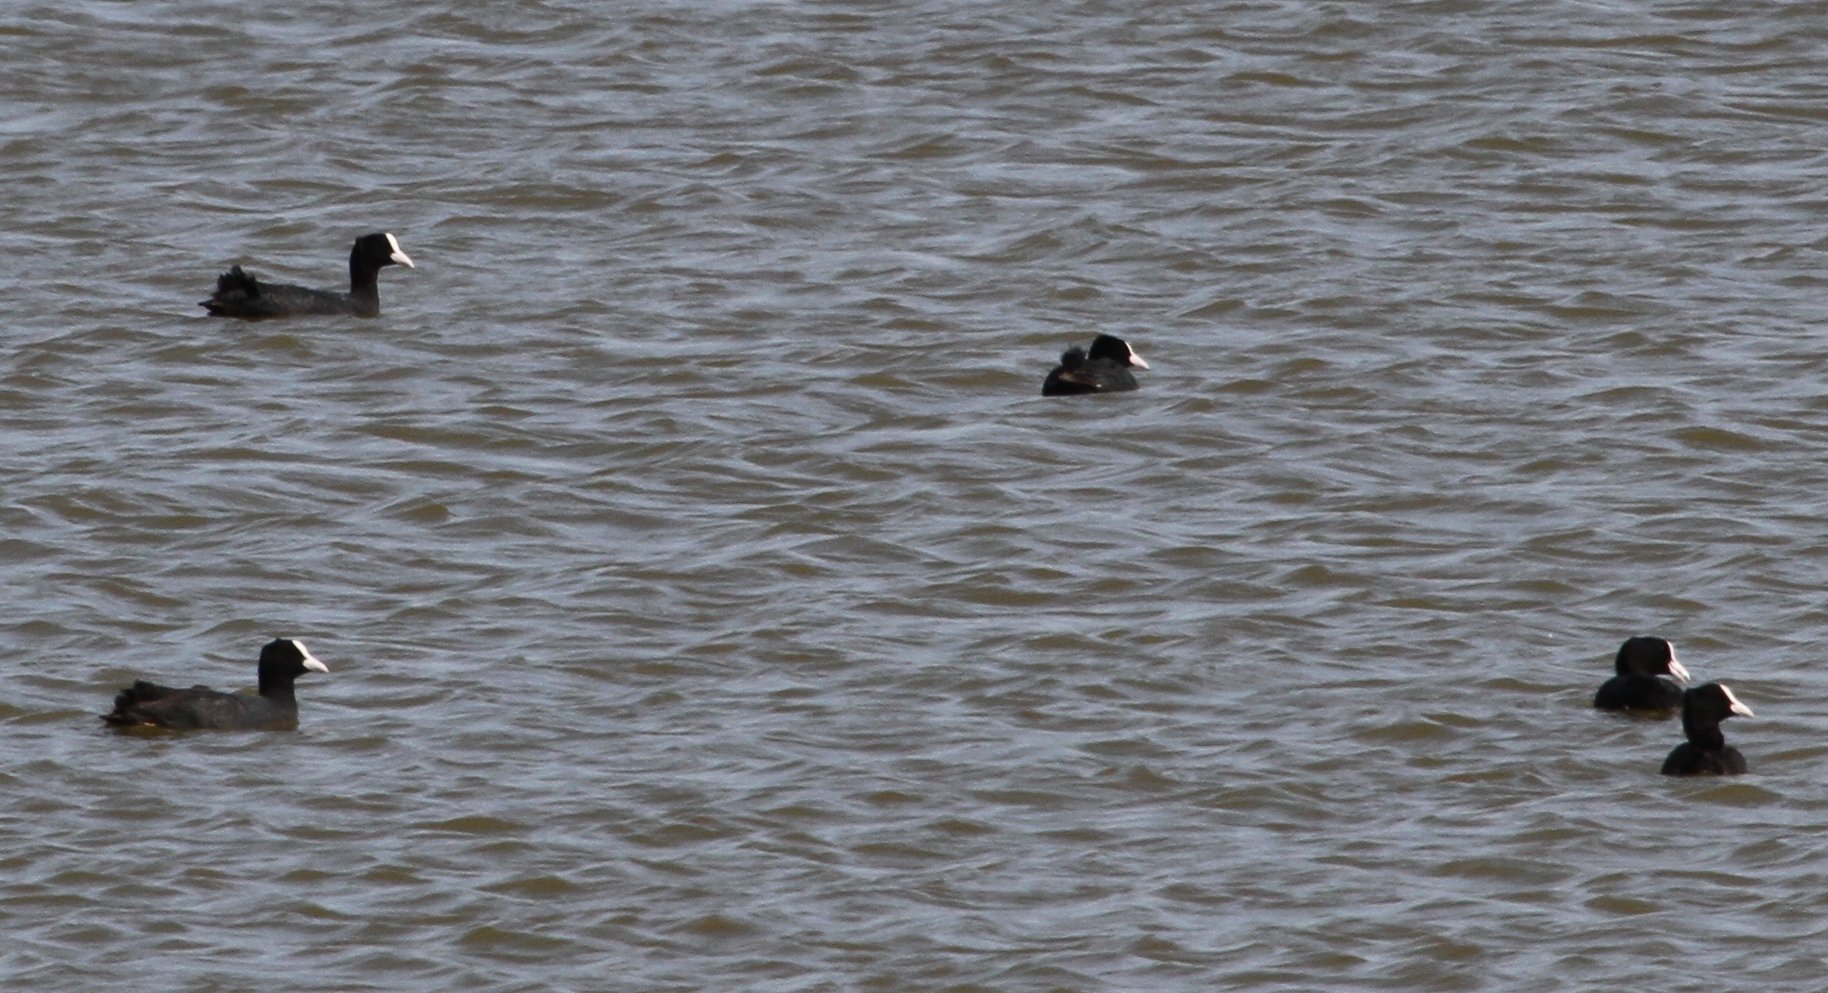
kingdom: Animalia
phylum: Chordata
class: Aves
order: Gruiformes
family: Rallidae
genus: Fulica
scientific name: Fulica atra
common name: Eurasian coot
